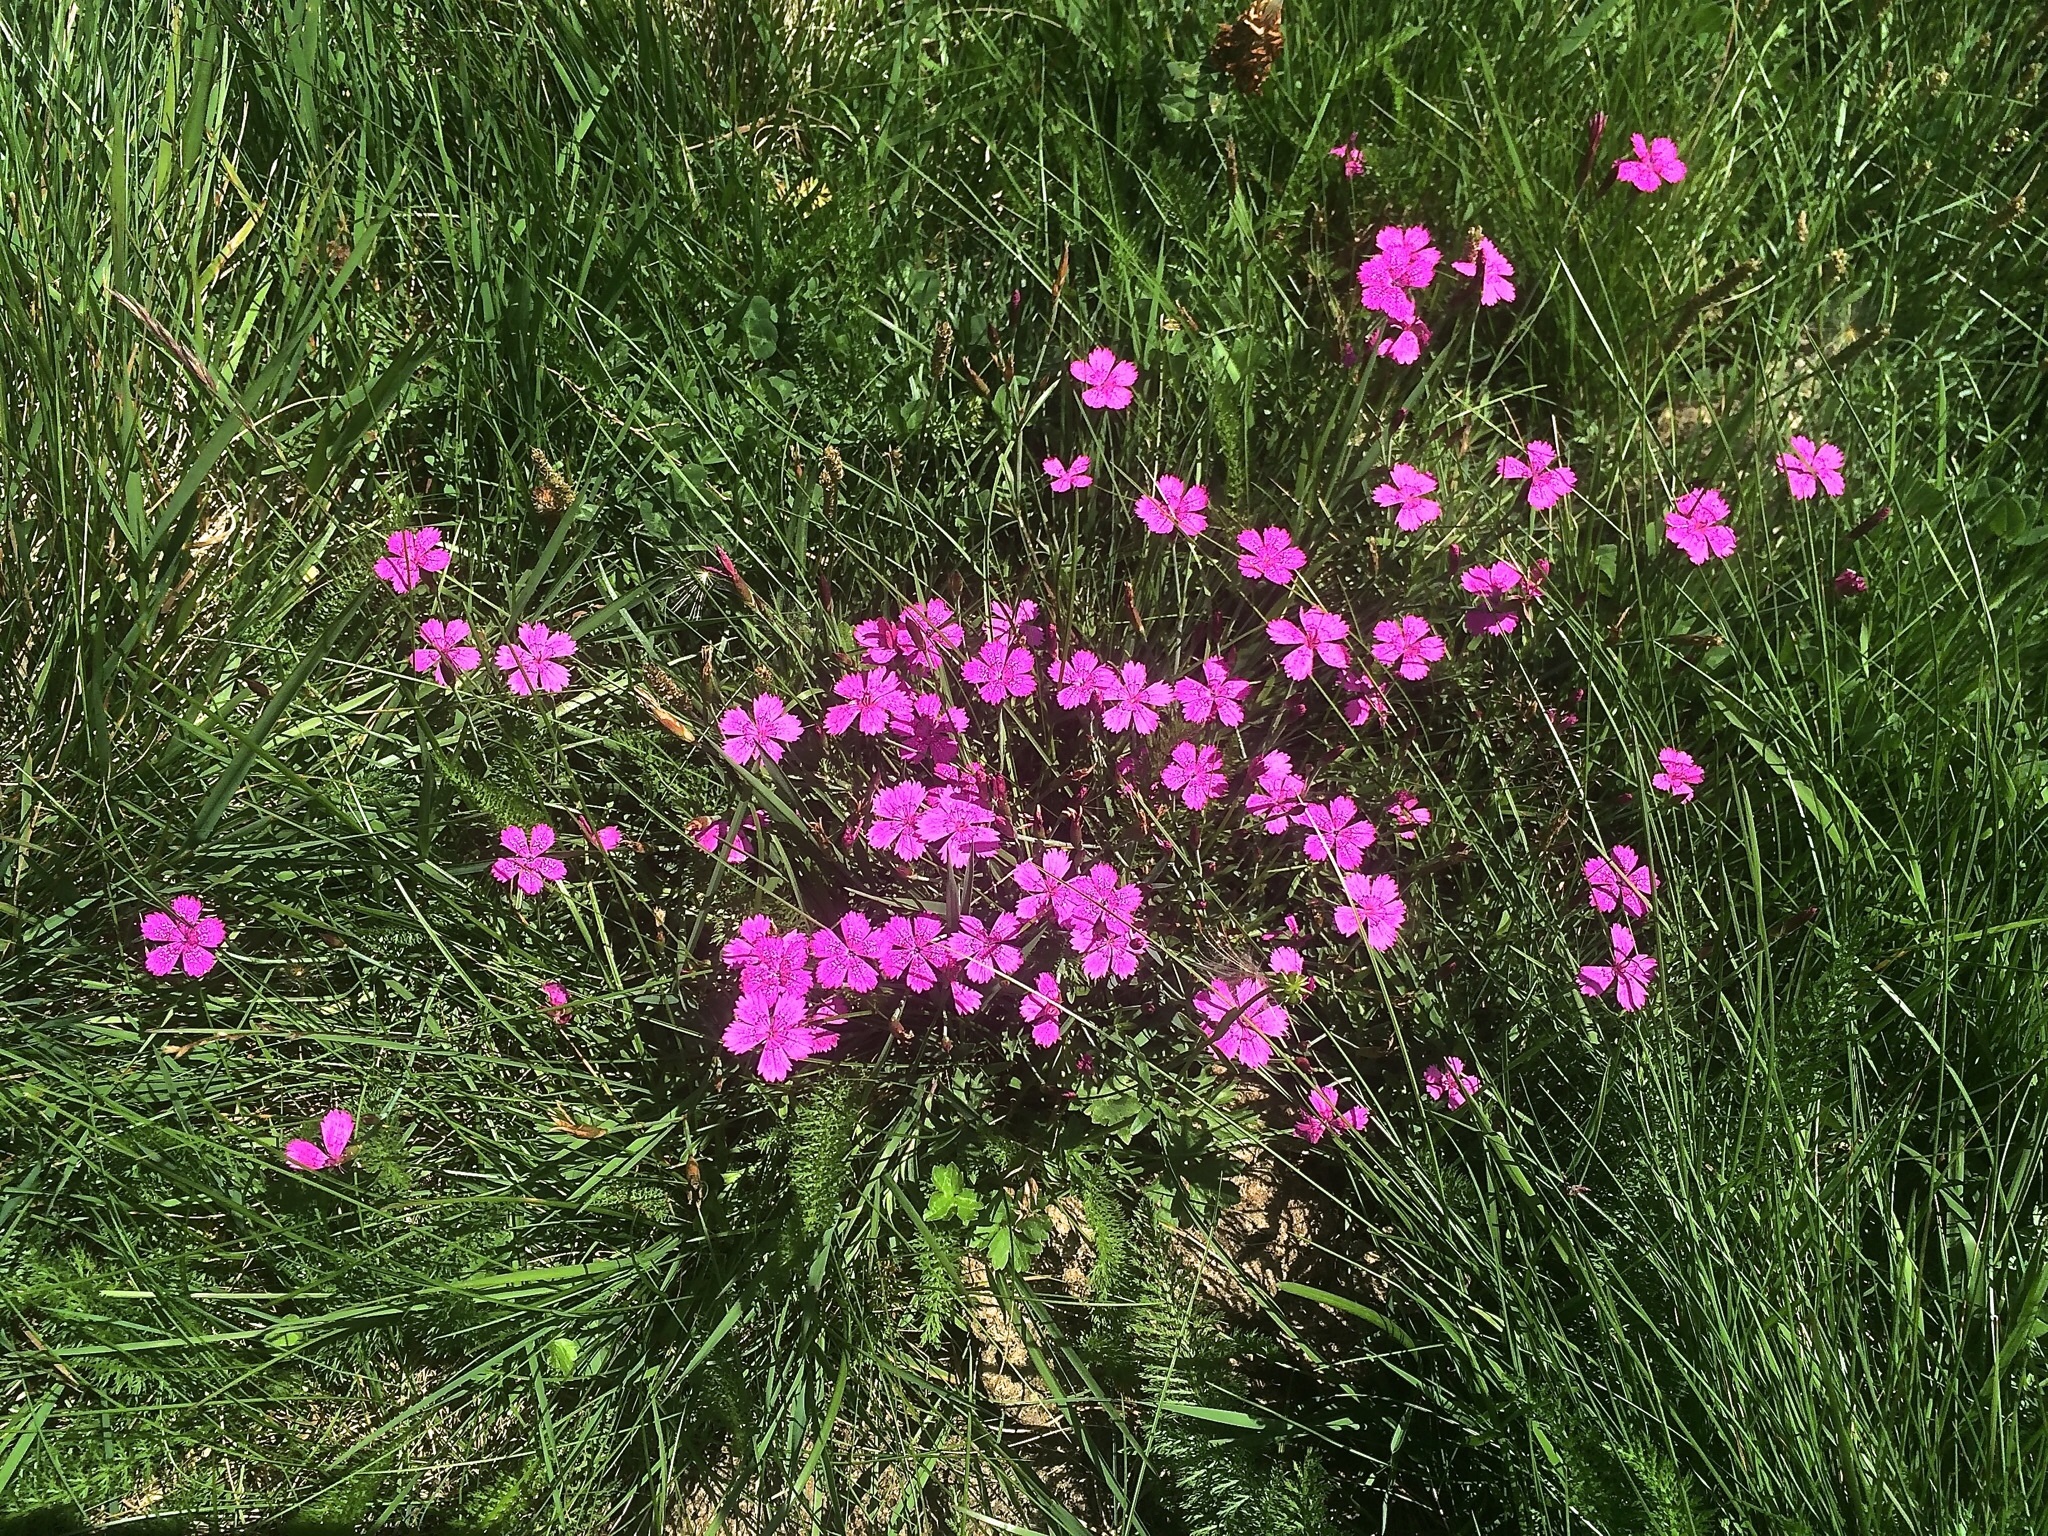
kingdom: Plantae
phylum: Tracheophyta
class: Magnoliopsida
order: Caryophyllales
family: Caryophyllaceae
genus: Dianthus
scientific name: Dianthus deltoides
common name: Maiden pink
